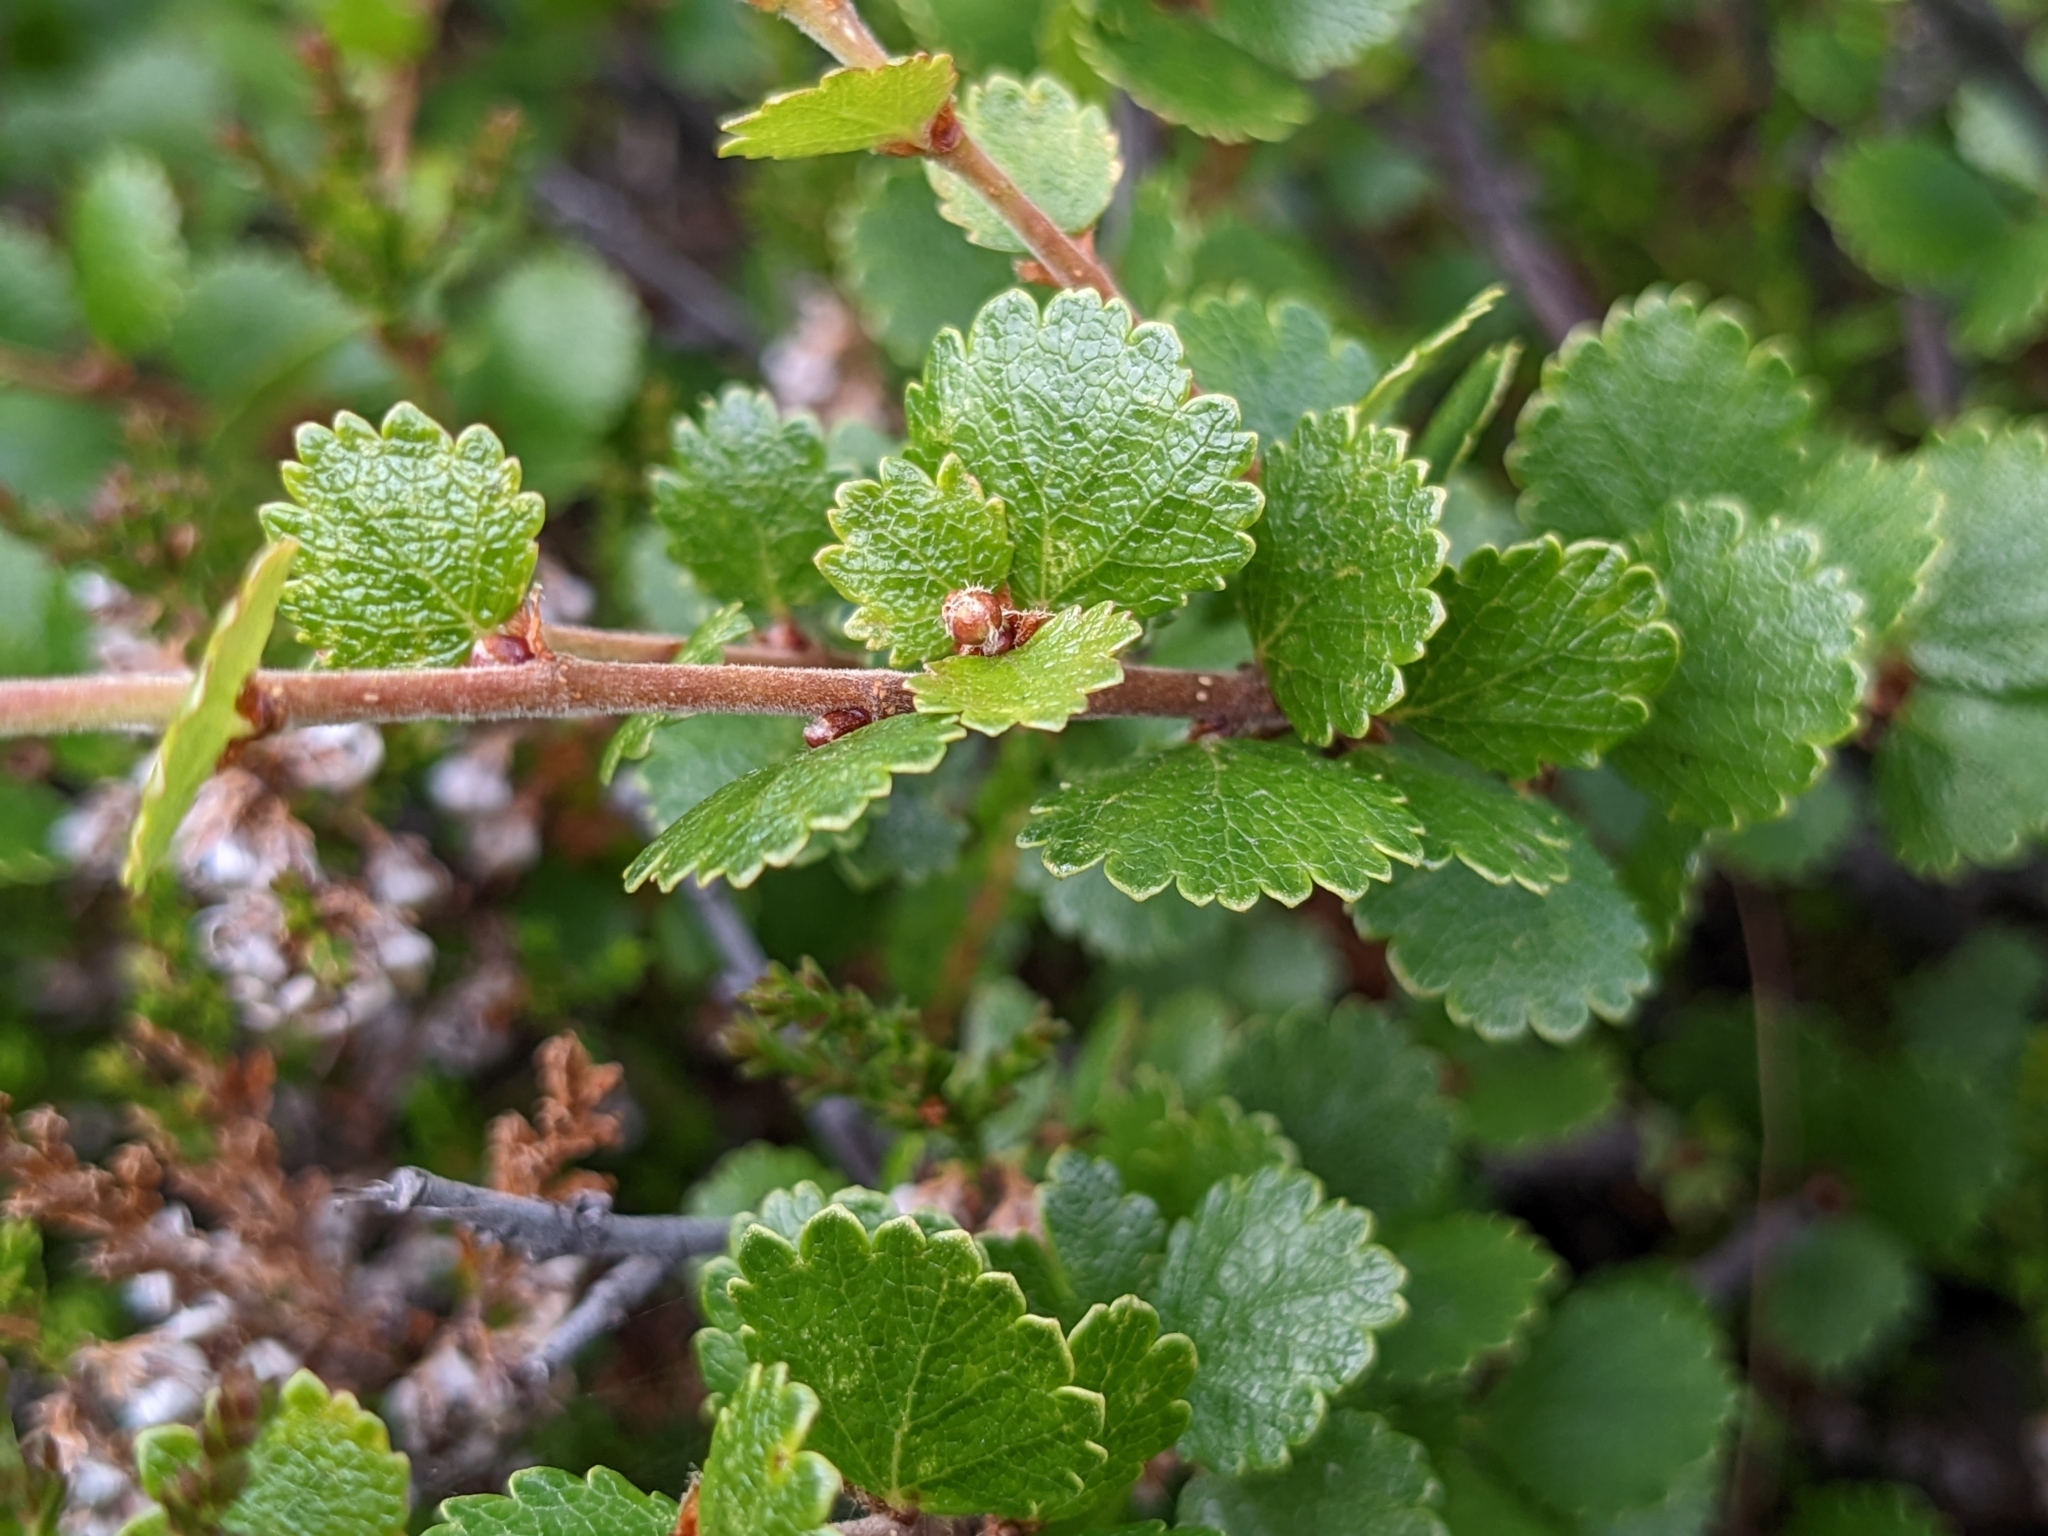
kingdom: Plantae
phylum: Tracheophyta
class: Magnoliopsida
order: Fagales
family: Betulaceae
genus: Betula
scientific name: Betula nana
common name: Arctic dwarf birch
